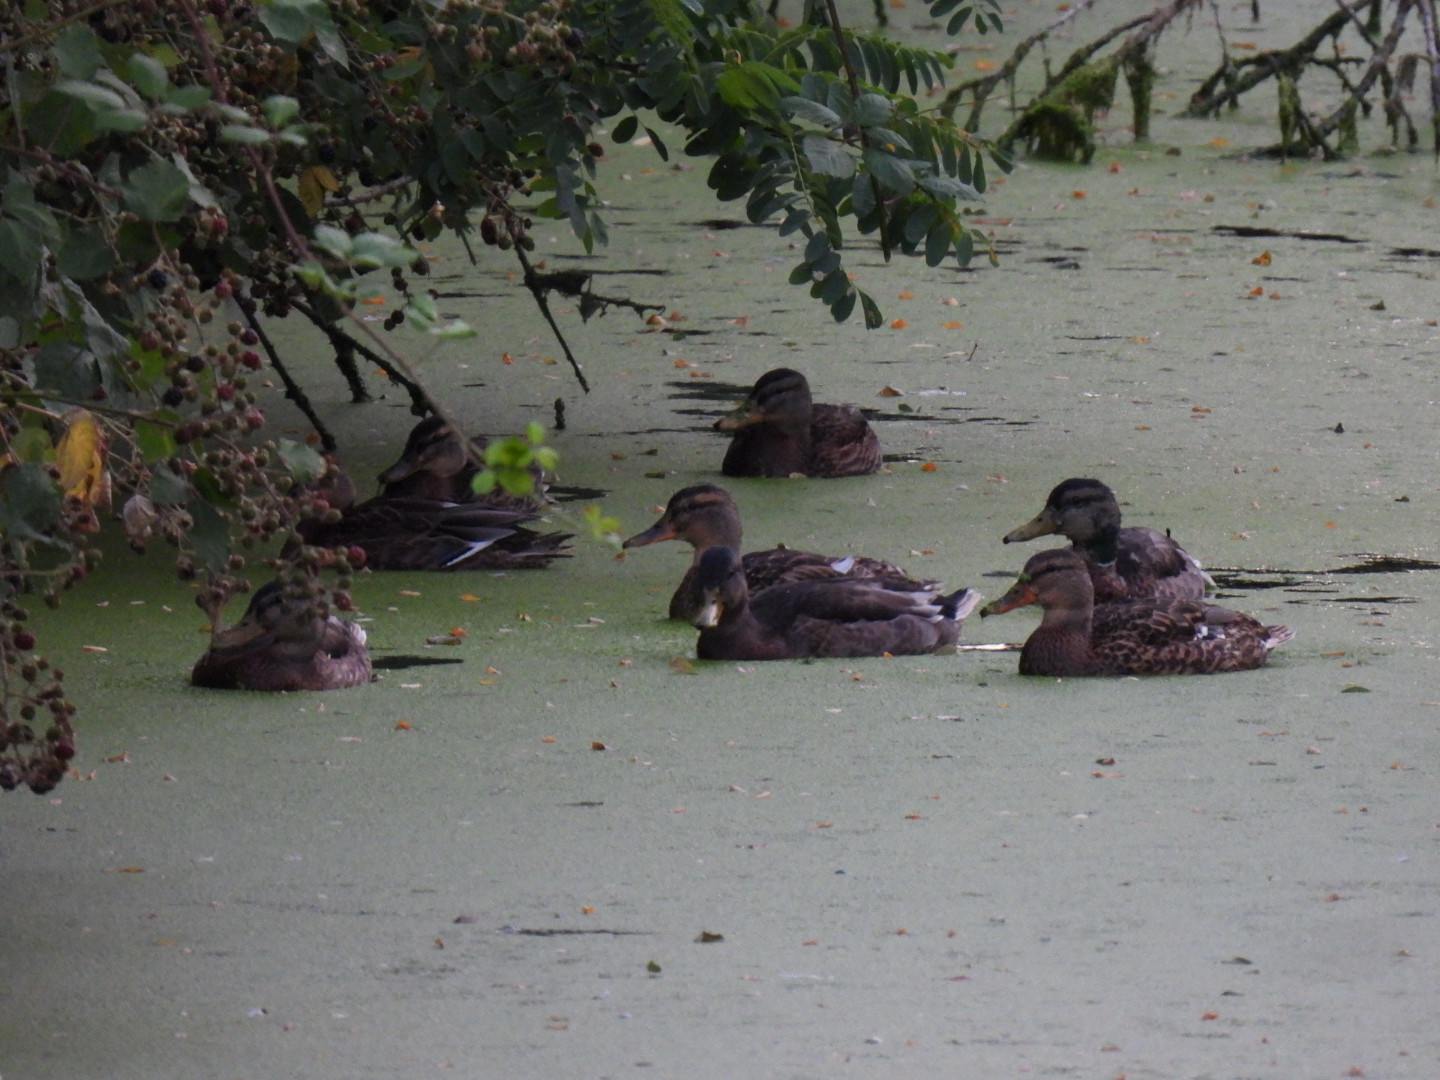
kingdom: Animalia
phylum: Chordata
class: Aves
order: Anseriformes
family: Anatidae
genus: Anas
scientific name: Anas platyrhynchos
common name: Mallard
